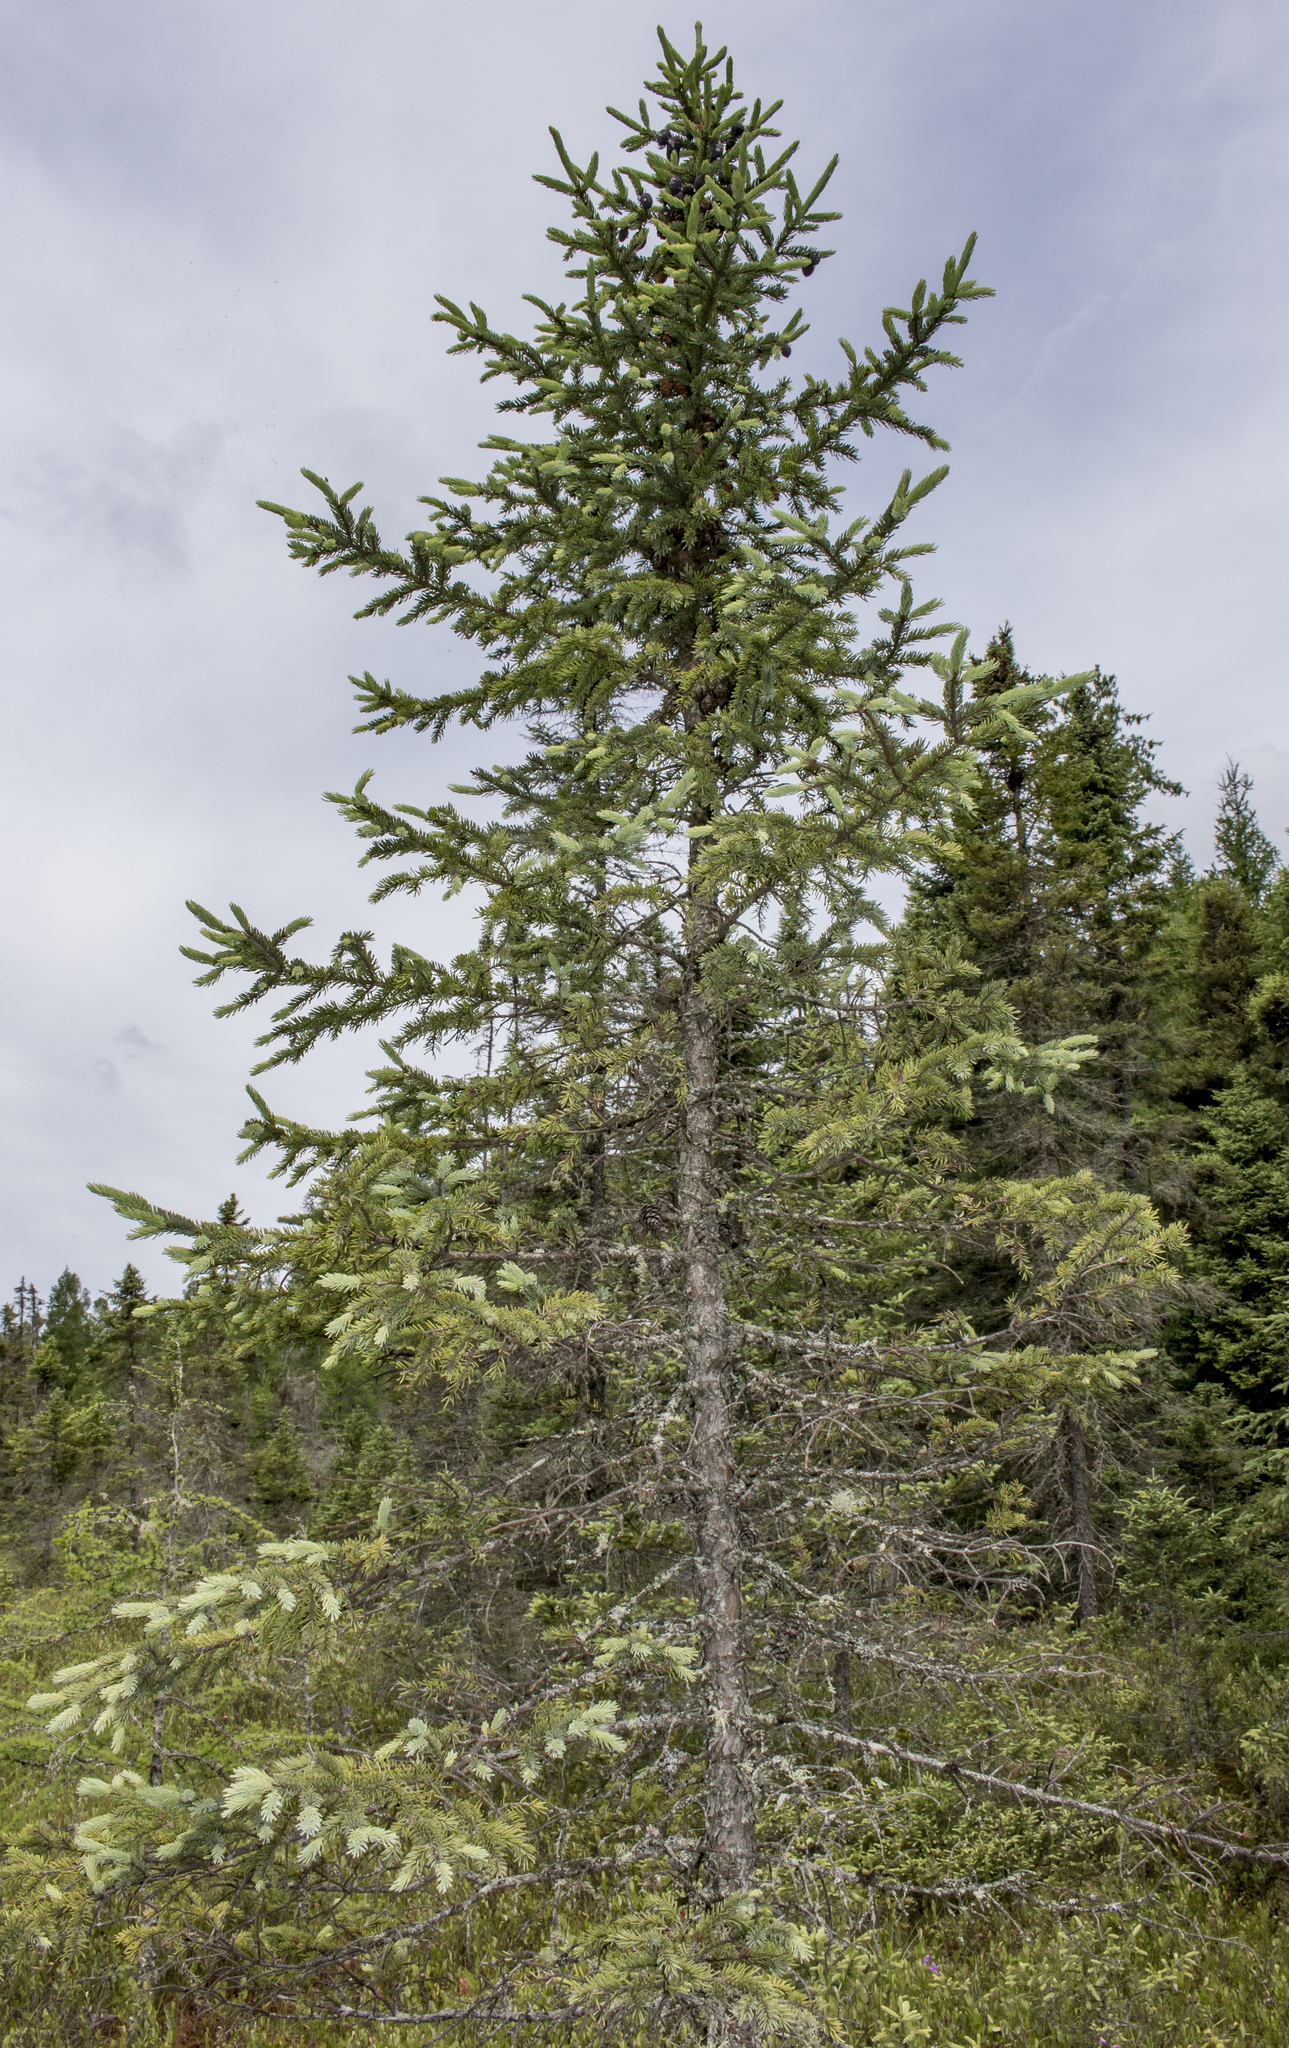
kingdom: Plantae
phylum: Tracheophyta
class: Pinopsida
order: Pinales
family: Pinaceae
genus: Picea
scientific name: Picea mariana
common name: Black spruce
